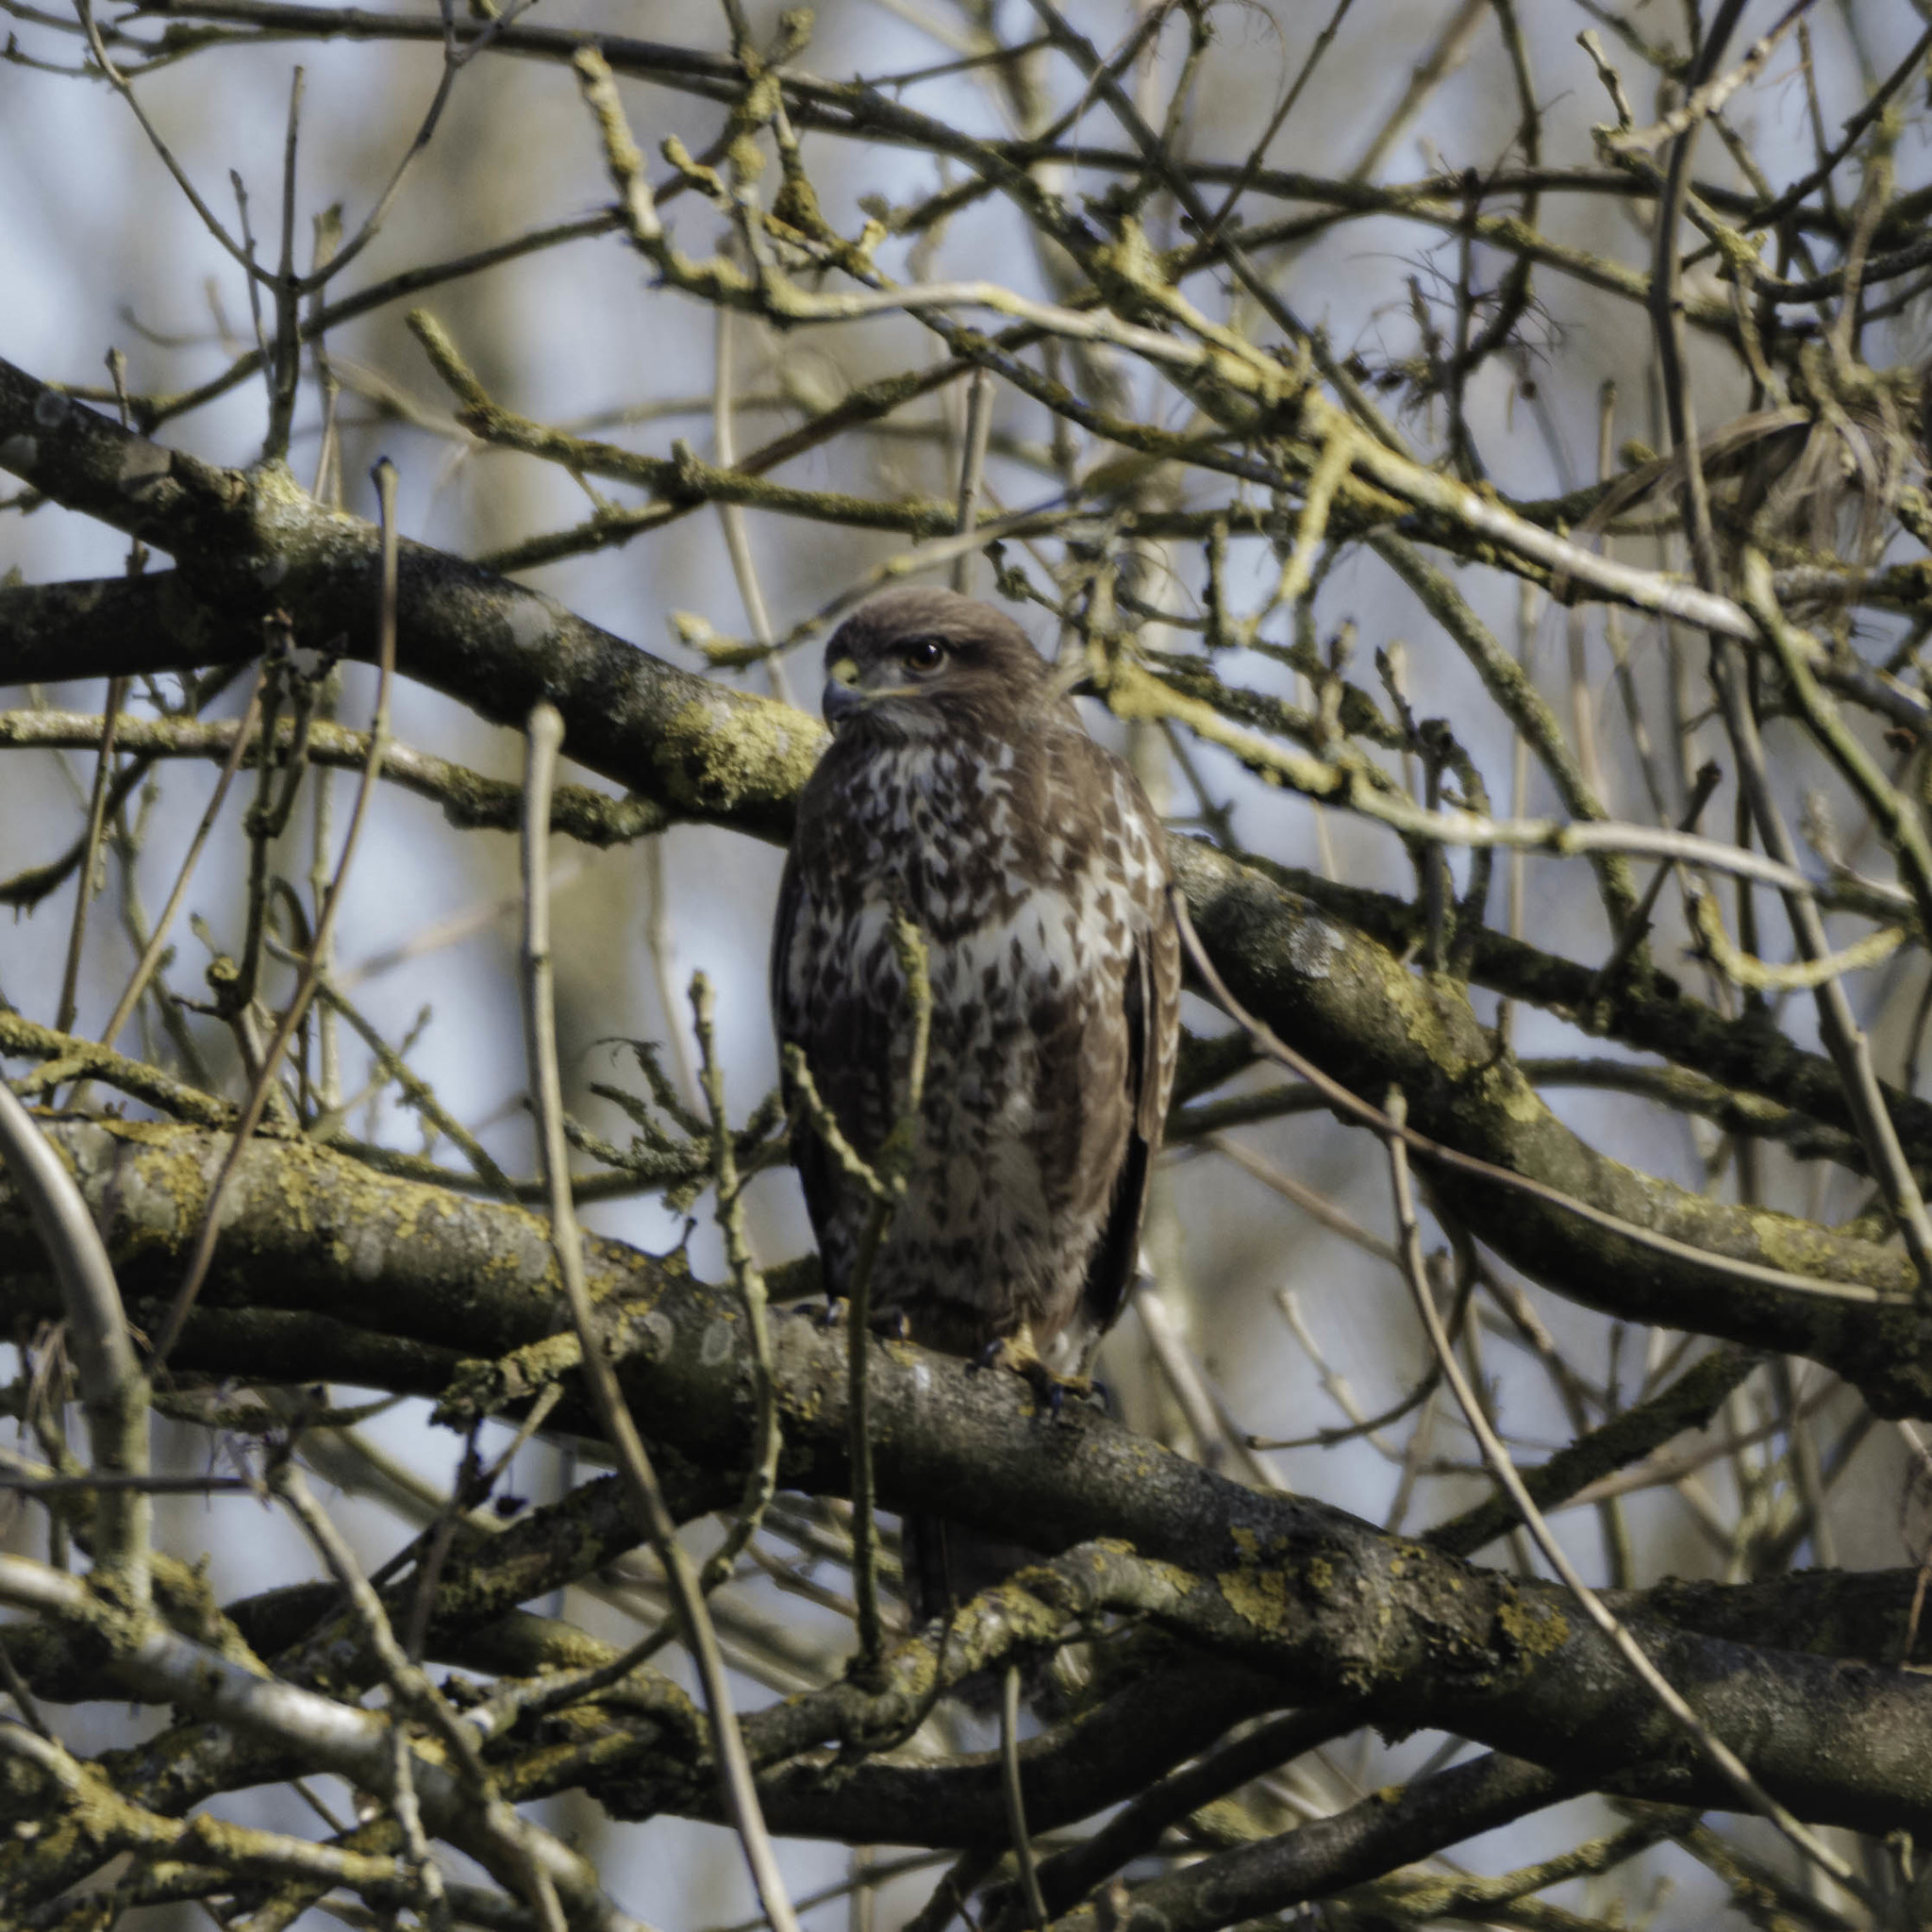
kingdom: Animalia
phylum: Chordata
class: Aves
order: Accipitriformes
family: Accipitridae
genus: Buteo
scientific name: Buteo buteo
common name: Common buzzard
